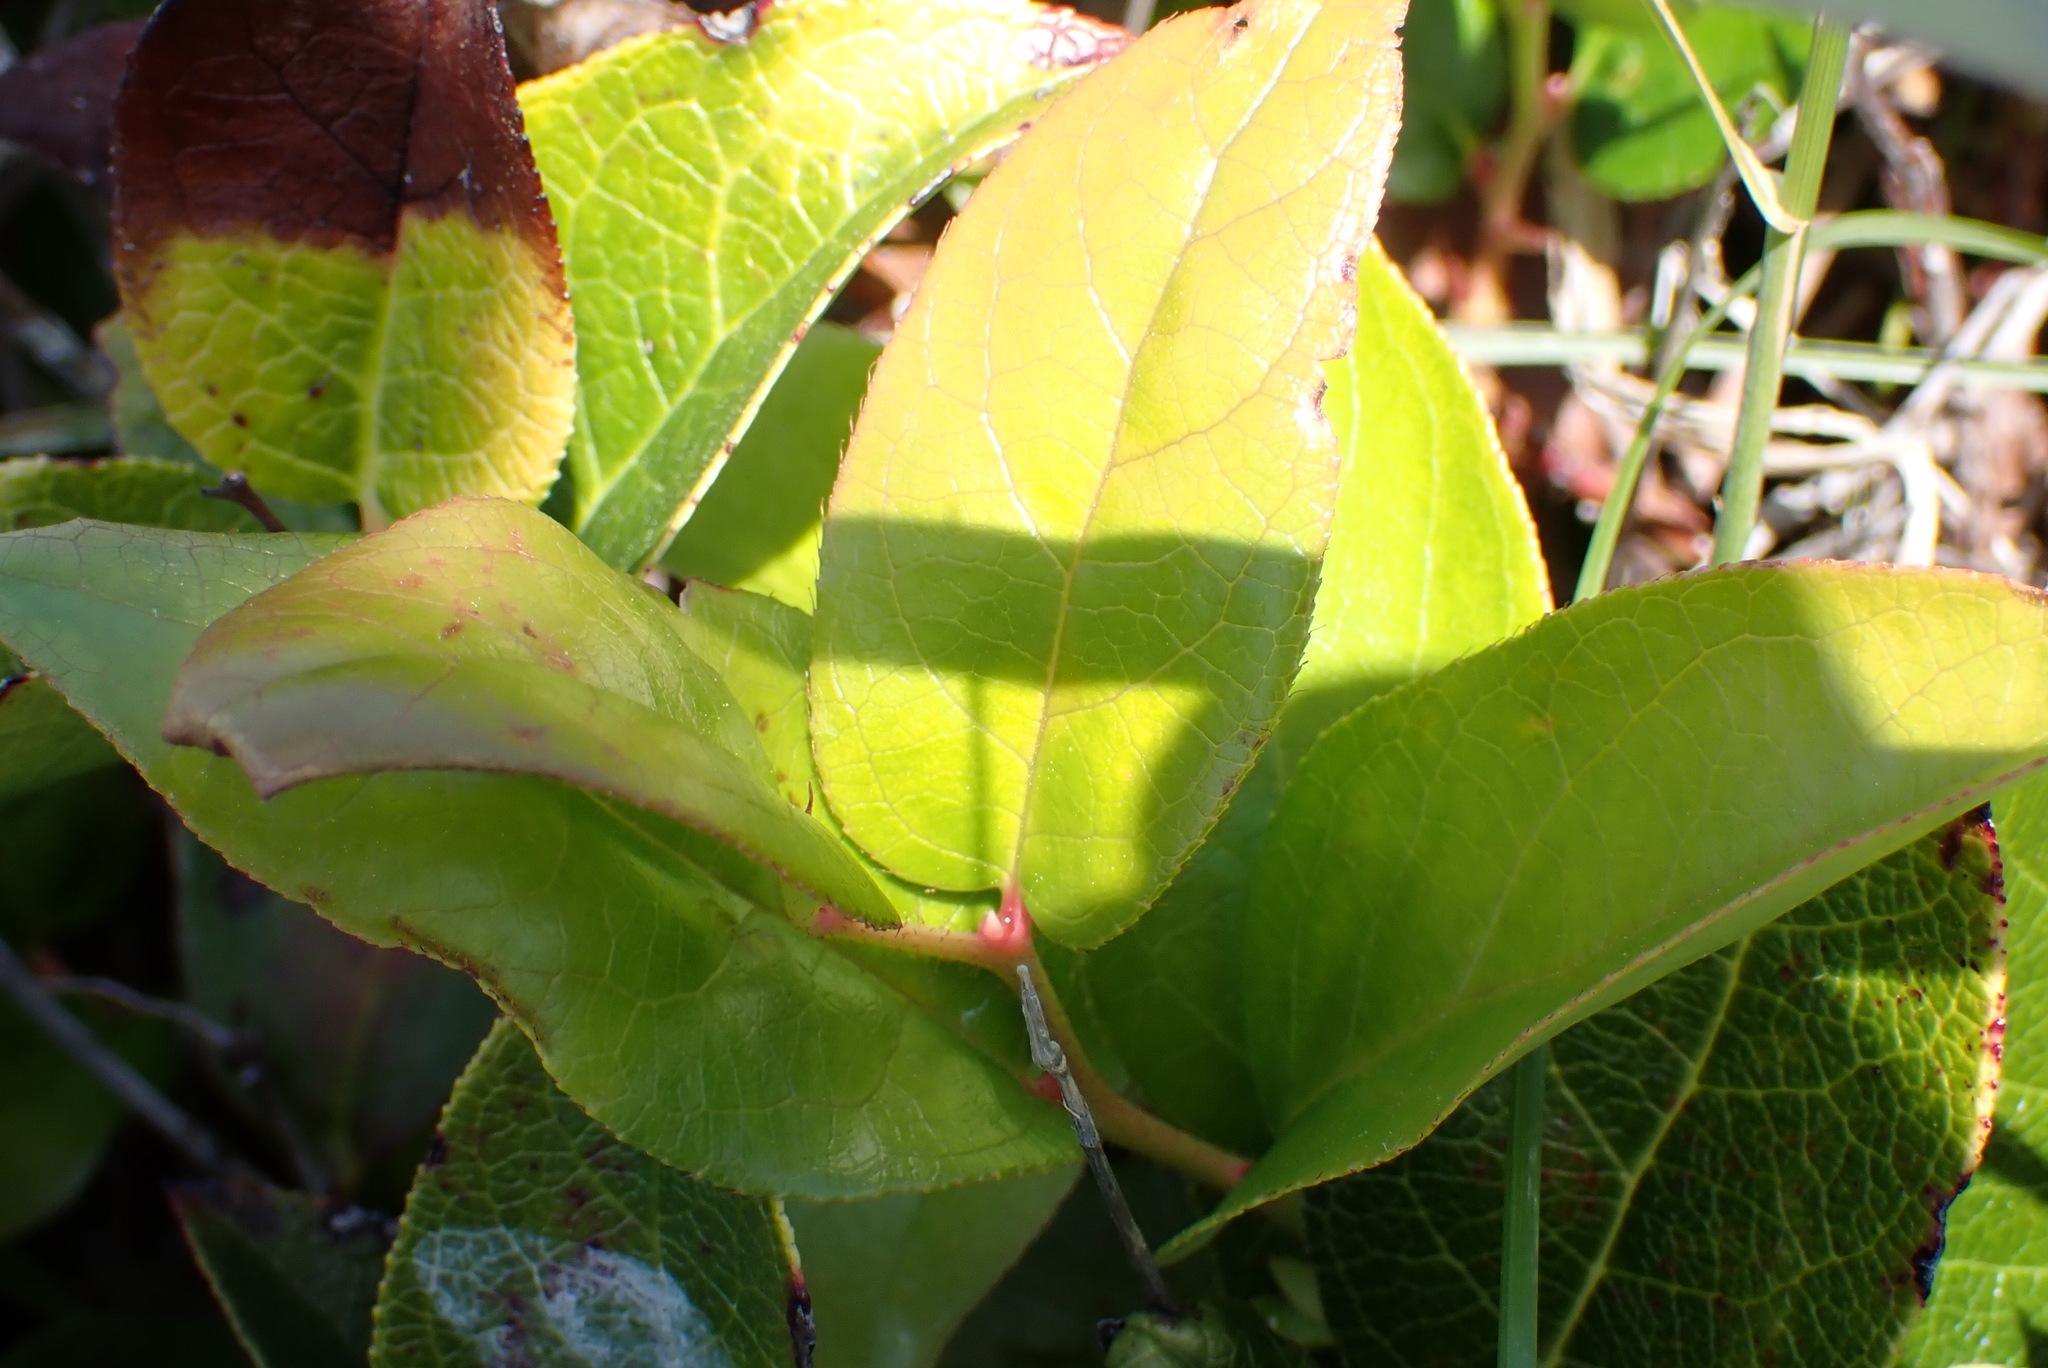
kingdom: Plantae
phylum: Tracheophyta
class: Magnoliopsida
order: Ericales
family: Ericaceae
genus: Gaultheria
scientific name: Gaultheria shallon
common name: Shallon
